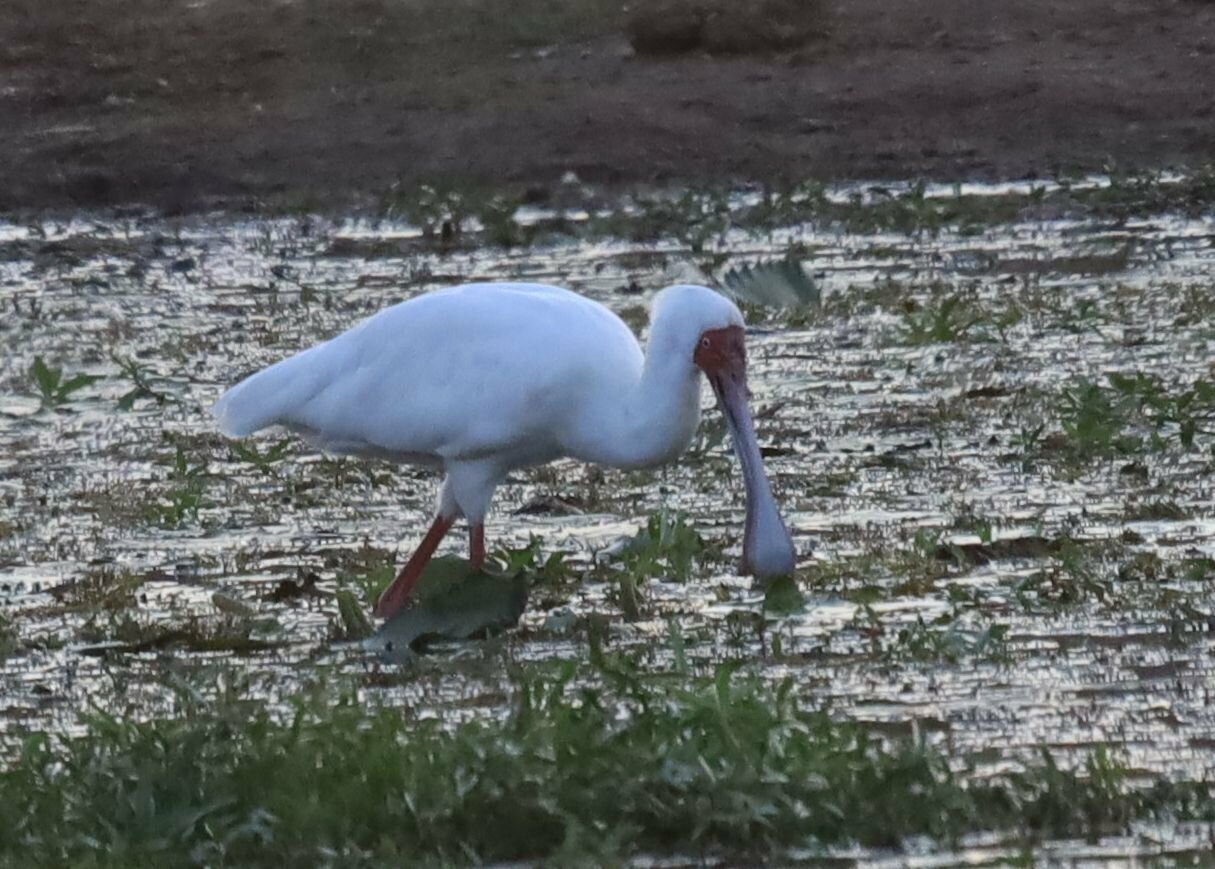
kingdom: Animalia
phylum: Chordata
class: Aves
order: Pelecaniformes
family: Threskiornithidae
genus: Platalea
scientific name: Platalea alba
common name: African spoonbill
